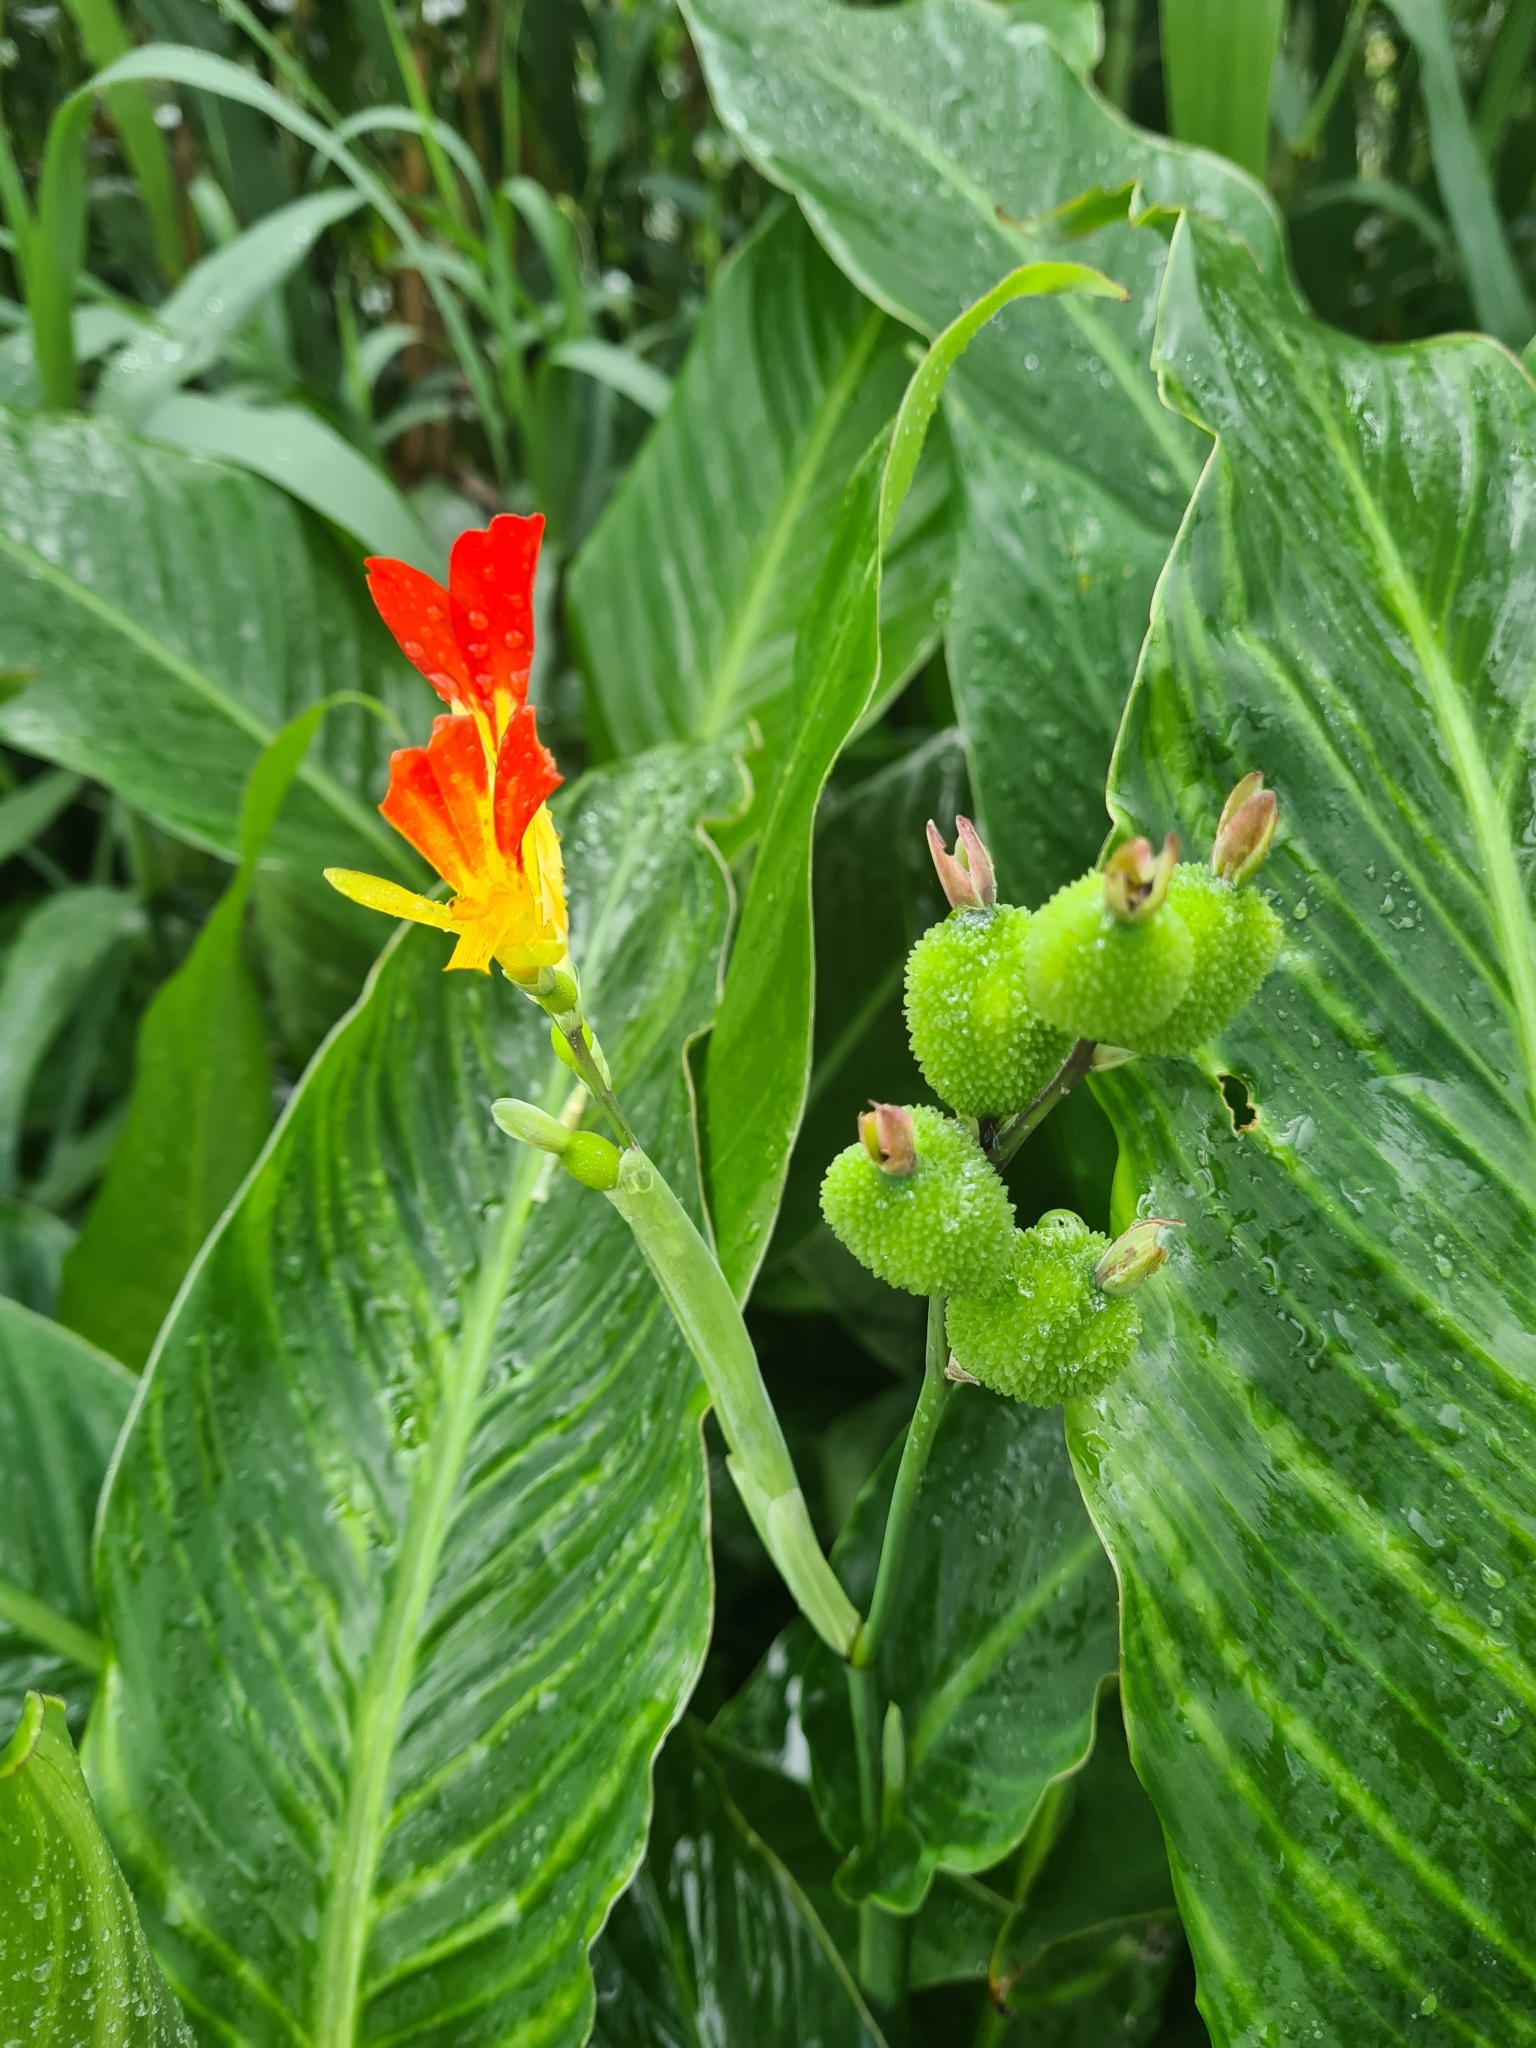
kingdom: Plantae
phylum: Tracheophyta
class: Liliopsida
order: Zingiberales
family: Cannaceae
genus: Canna
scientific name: Canna indica
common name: Indian shot
